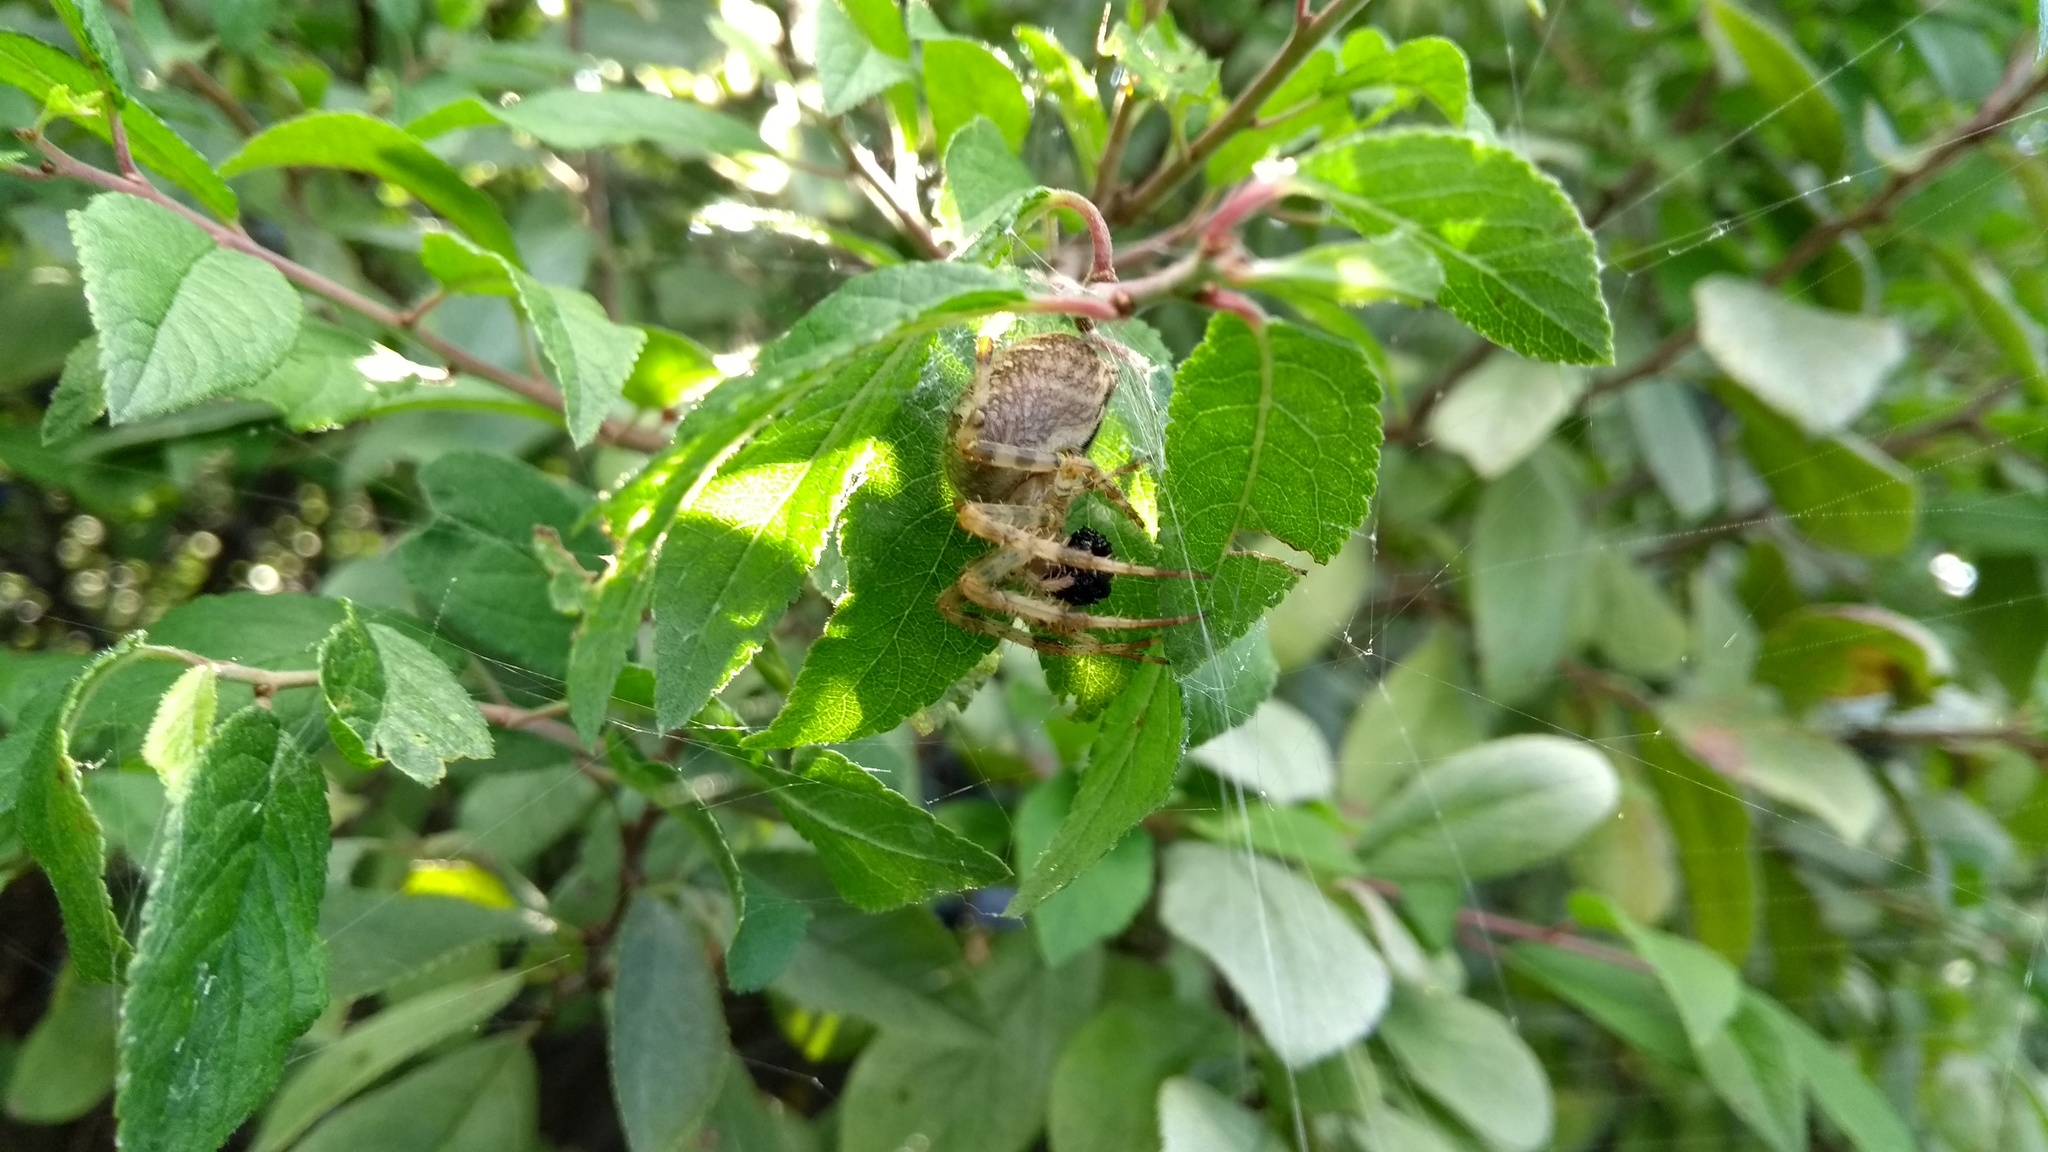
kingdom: Animalia
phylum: Arthropoda
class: Arachnida
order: Araneae
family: Araneidae
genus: Araneus
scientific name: Araneus diadematus
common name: Cross orbweaver
